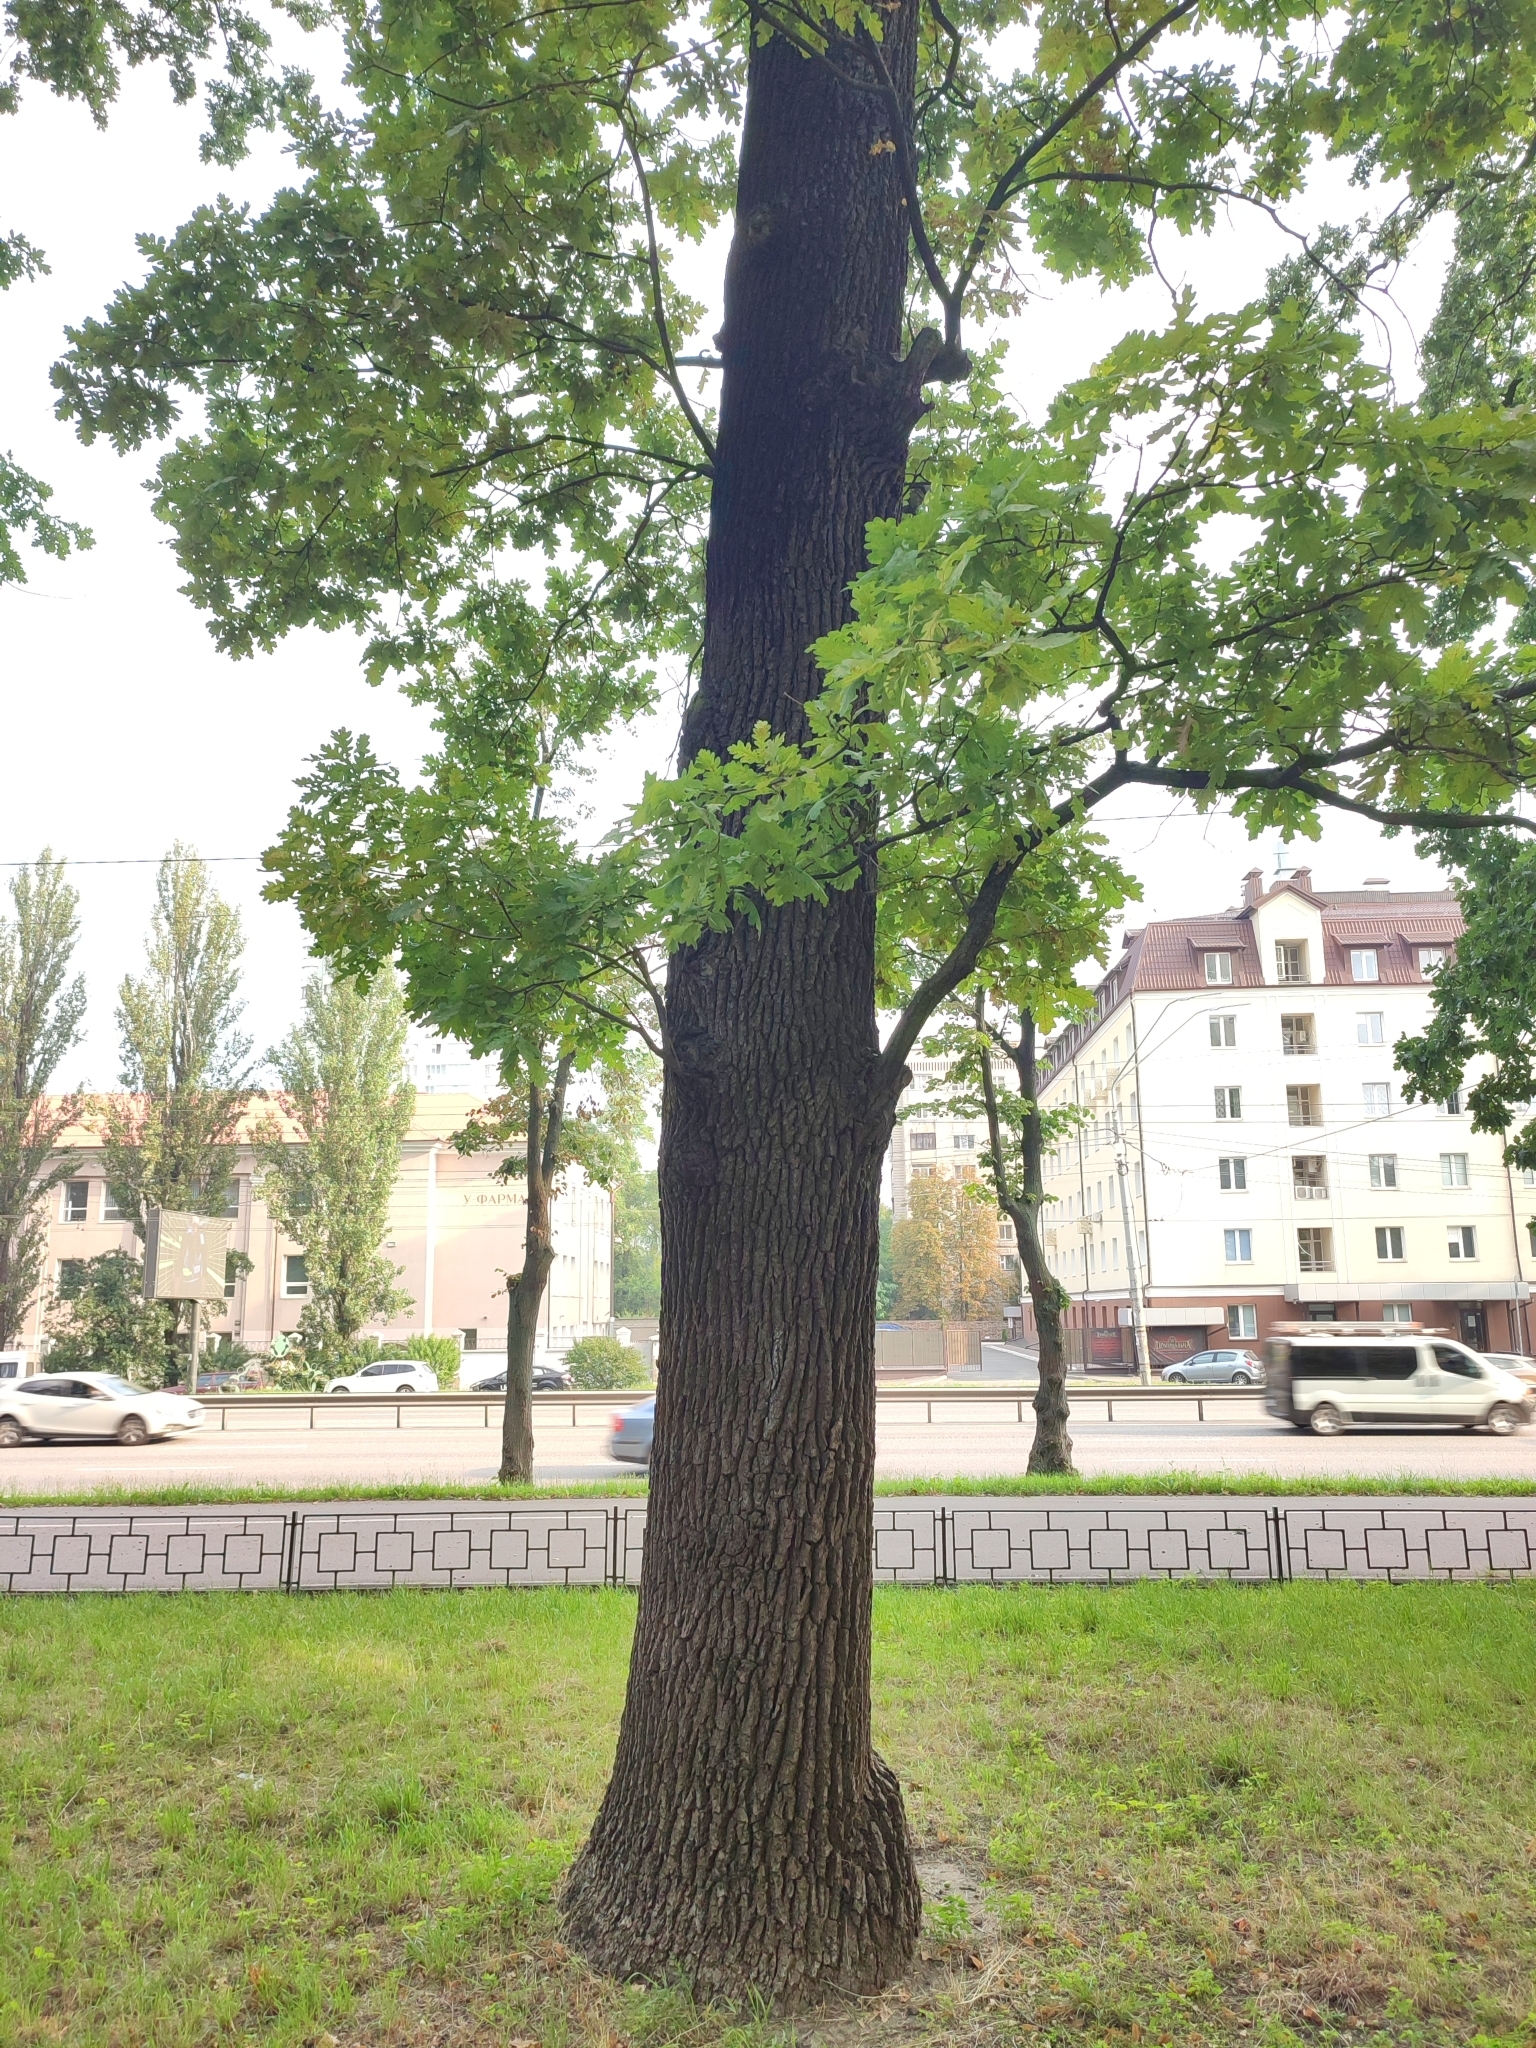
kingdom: Plantae
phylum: Tracheophyta
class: Magnoliopsida
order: Fagales
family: Fagaceae
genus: Quercus
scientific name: Quercus robur
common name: Pedunculate oak
